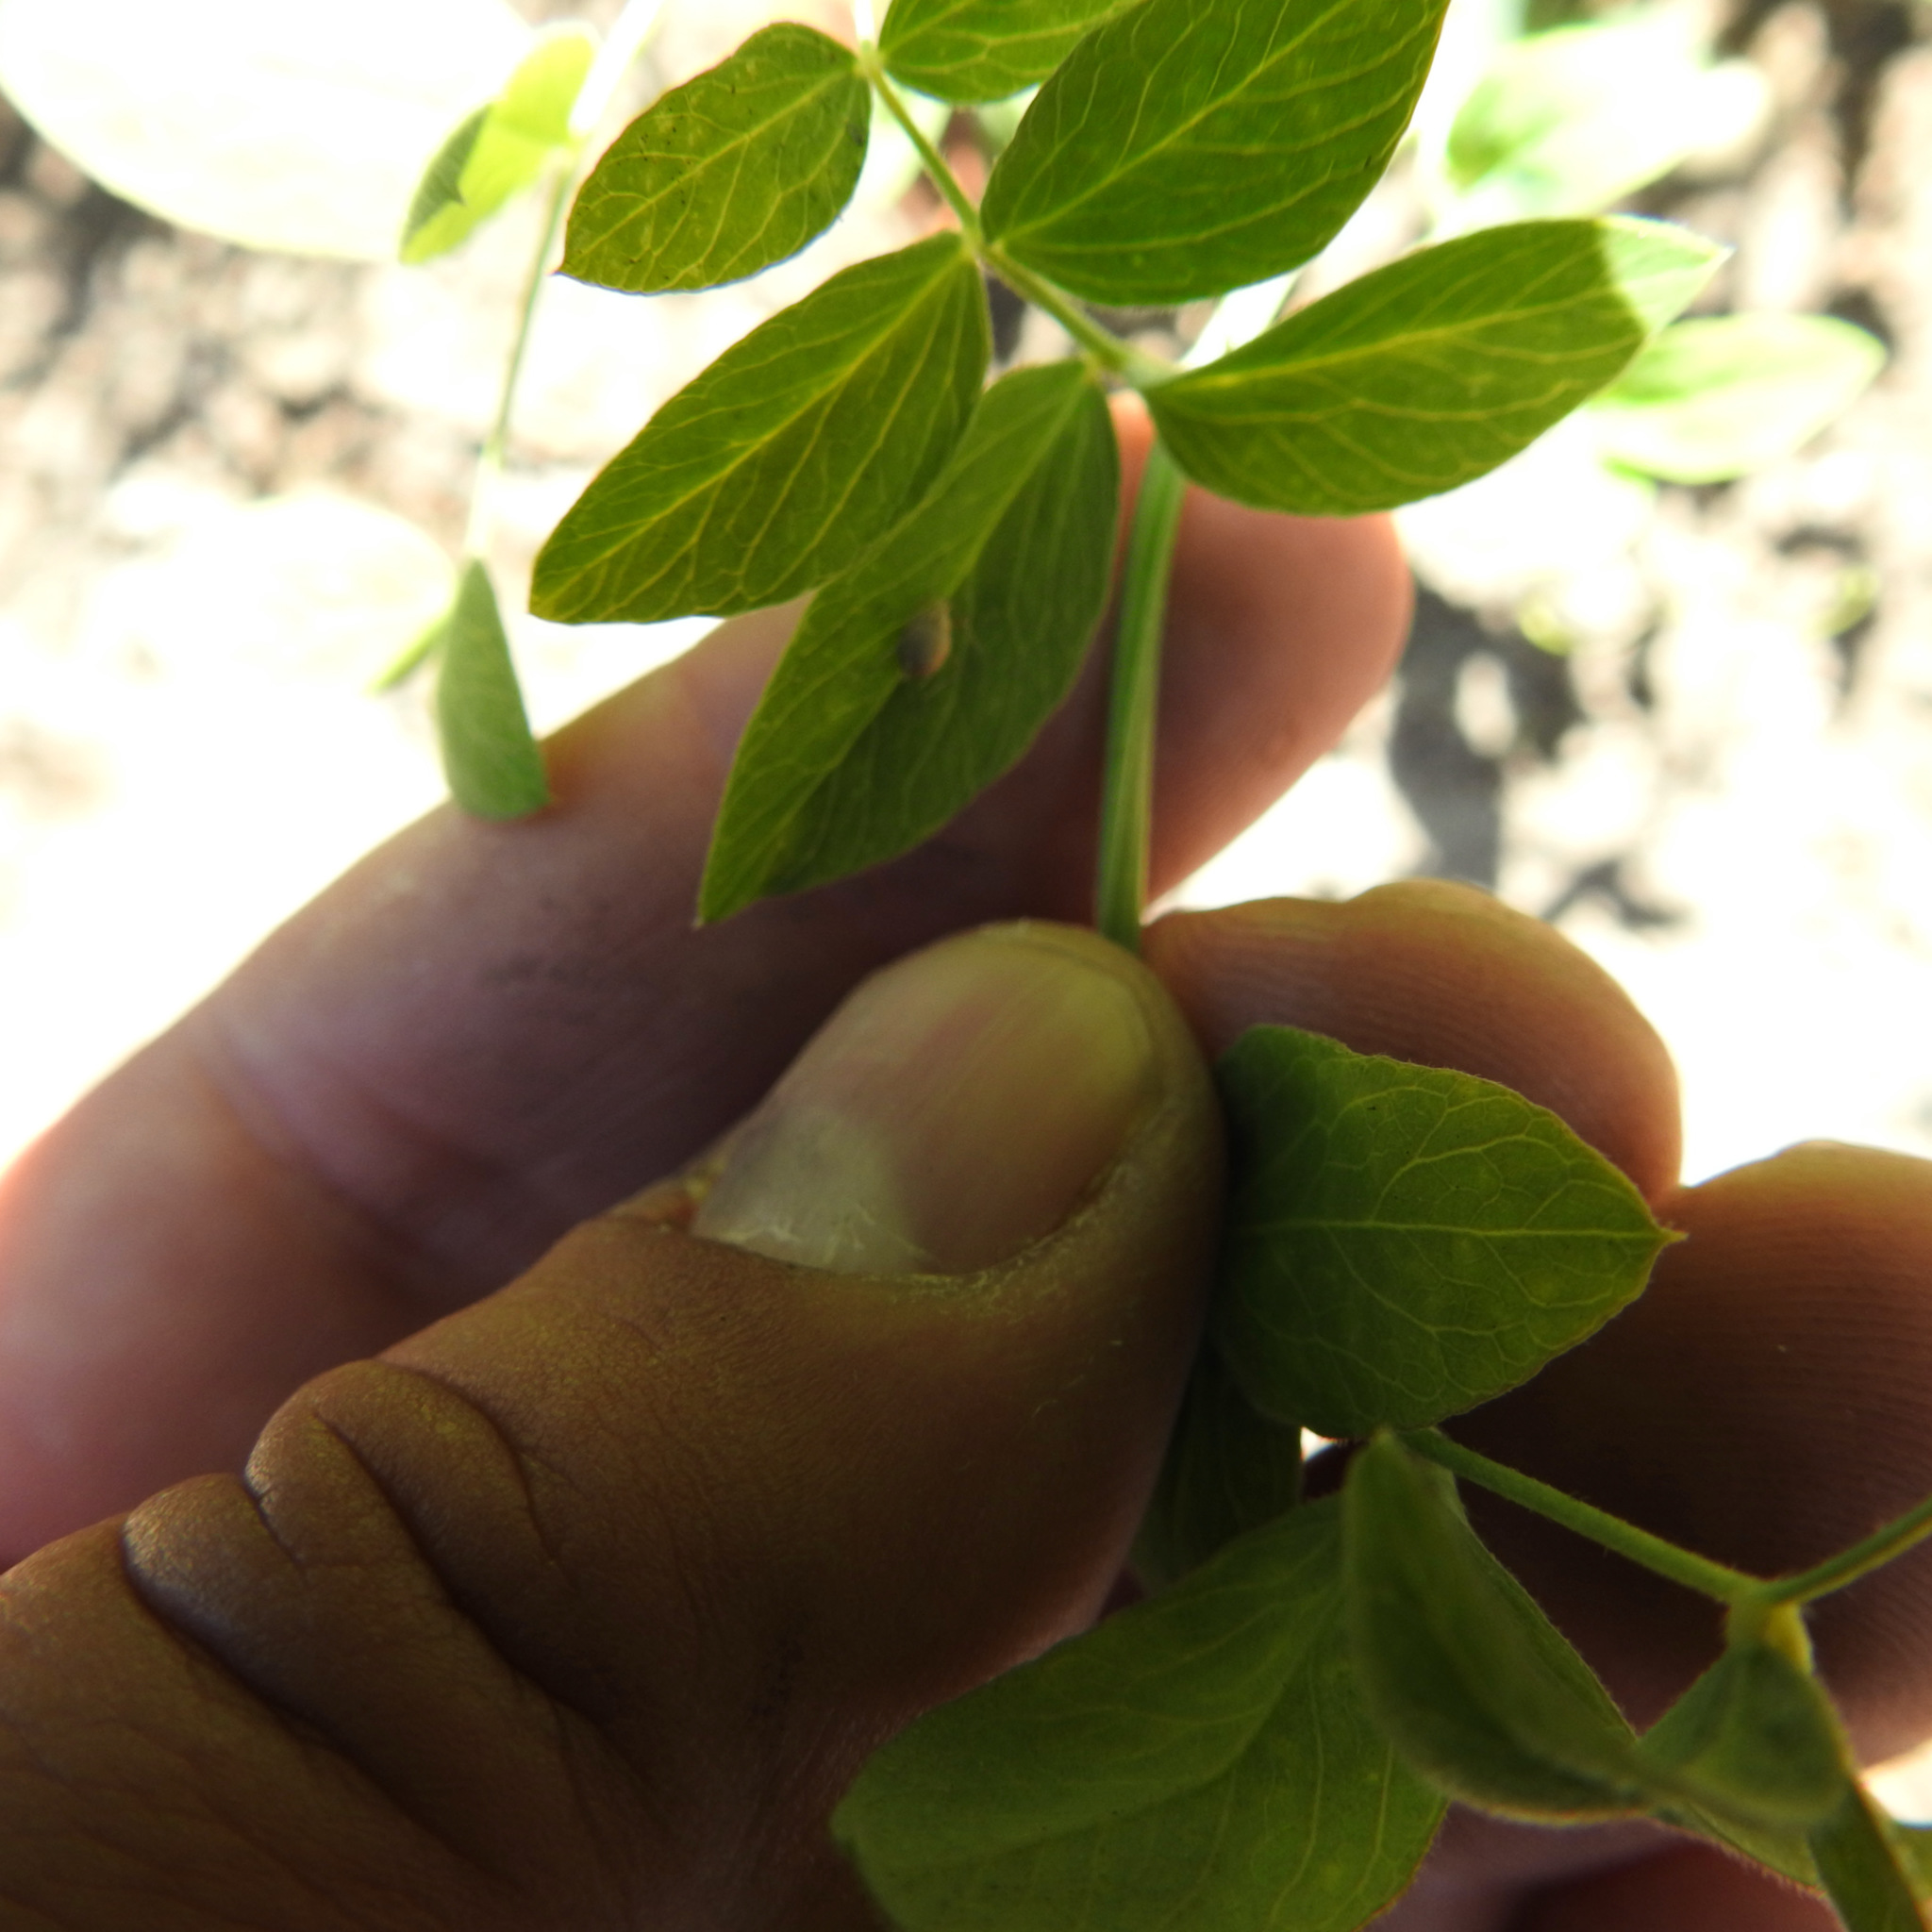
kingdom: Plantae
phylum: Tracheophyta
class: Magnoliopsida
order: Fabales
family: Fabaceae
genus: Lathyrus
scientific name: Lathyrus vestitus
